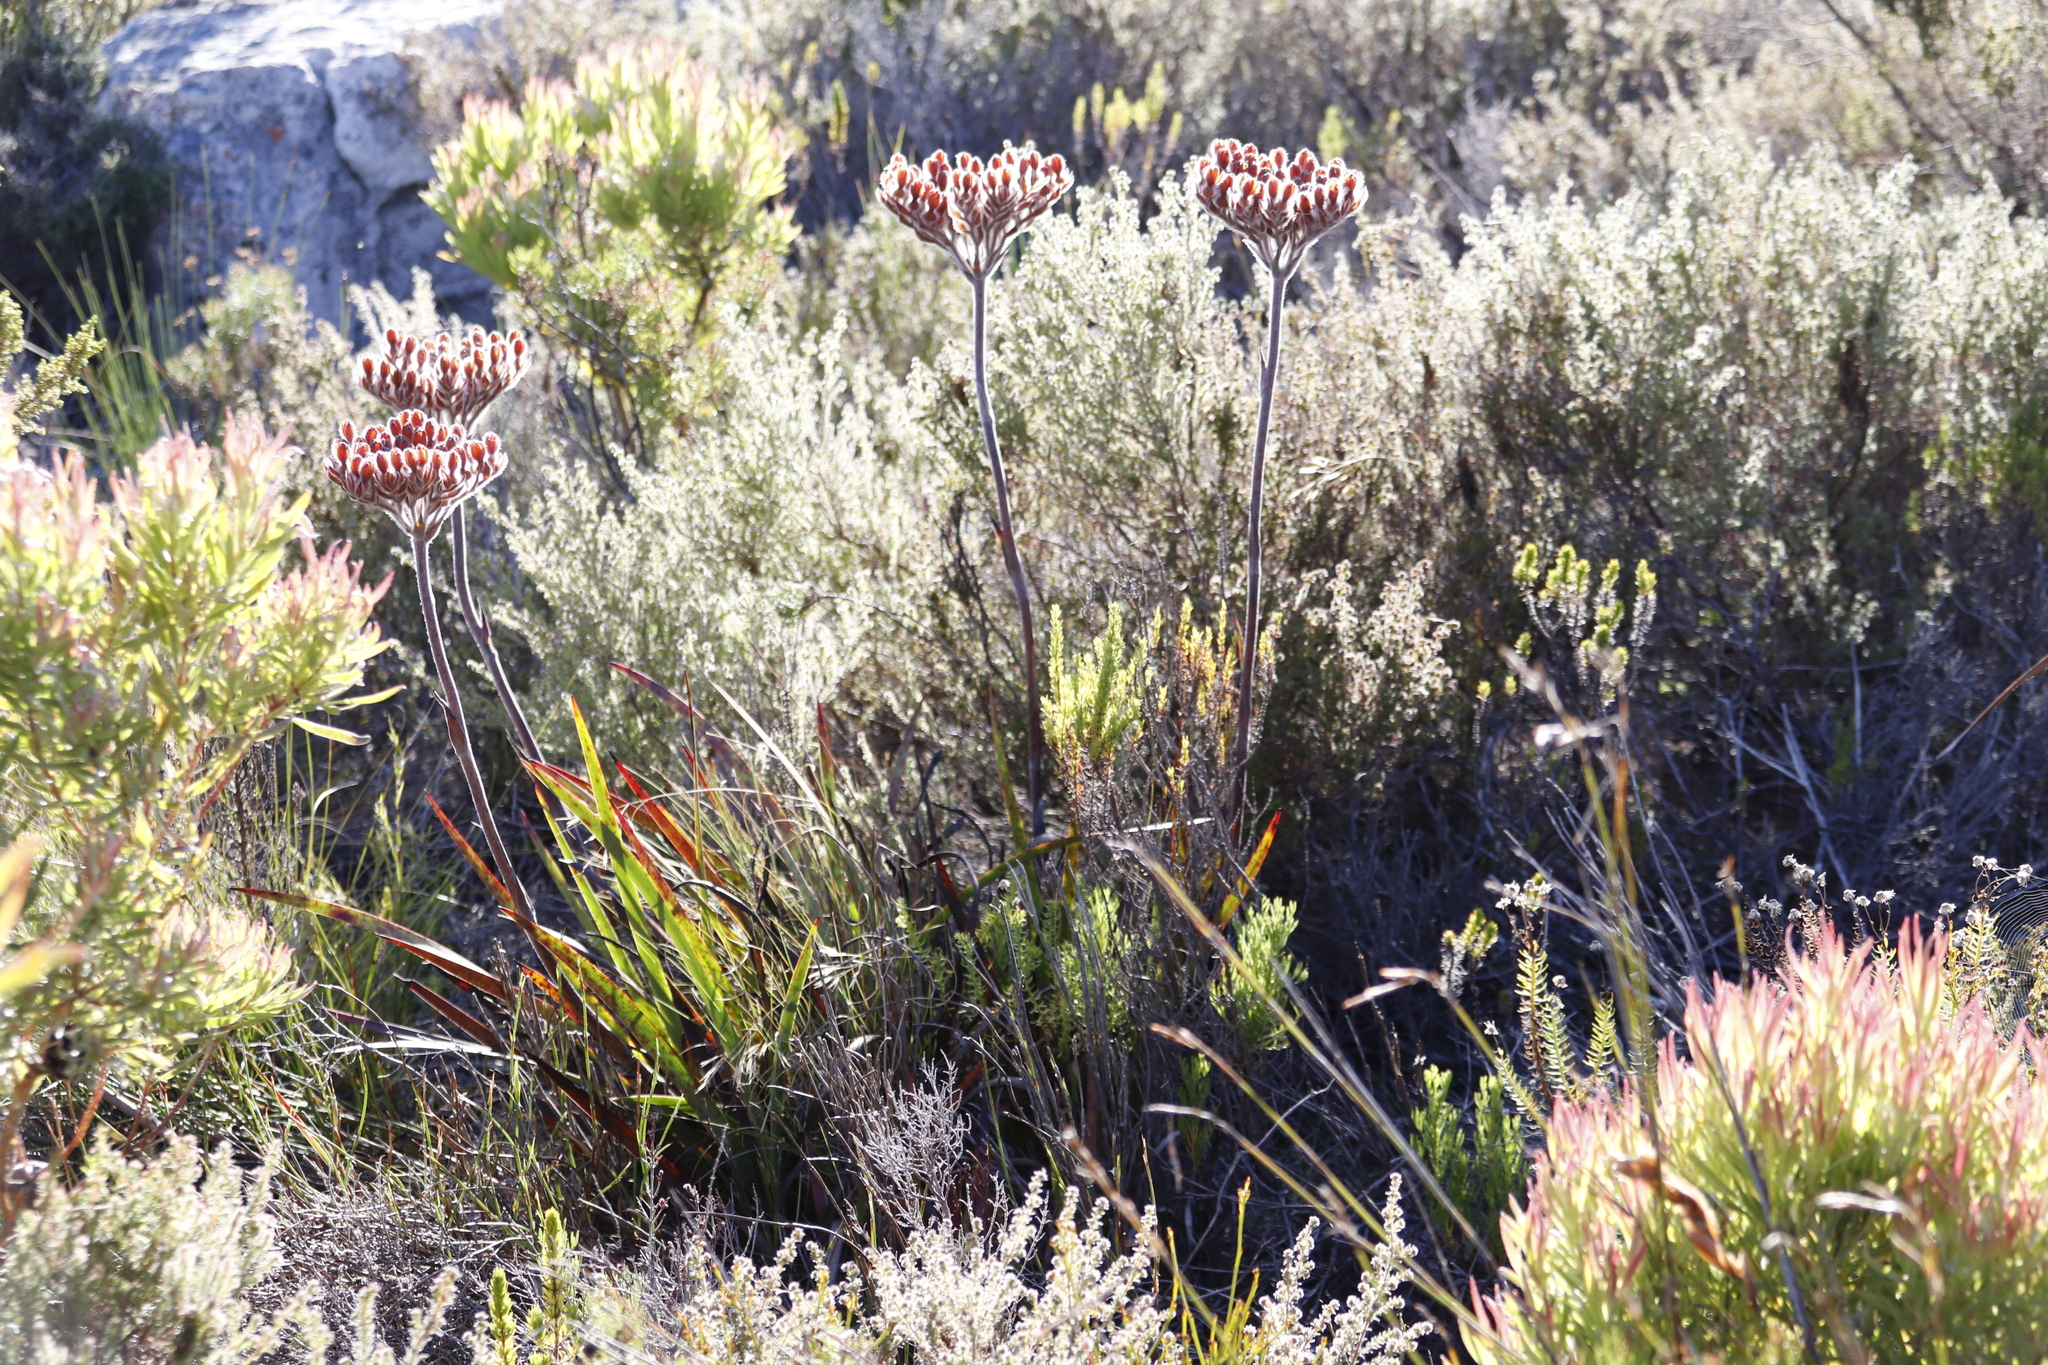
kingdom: Plantae
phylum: Tracheophyta
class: Liliopsida
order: Commelinales
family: Haemodoraceae
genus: Dilatris
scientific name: Dilatris corymbosa
